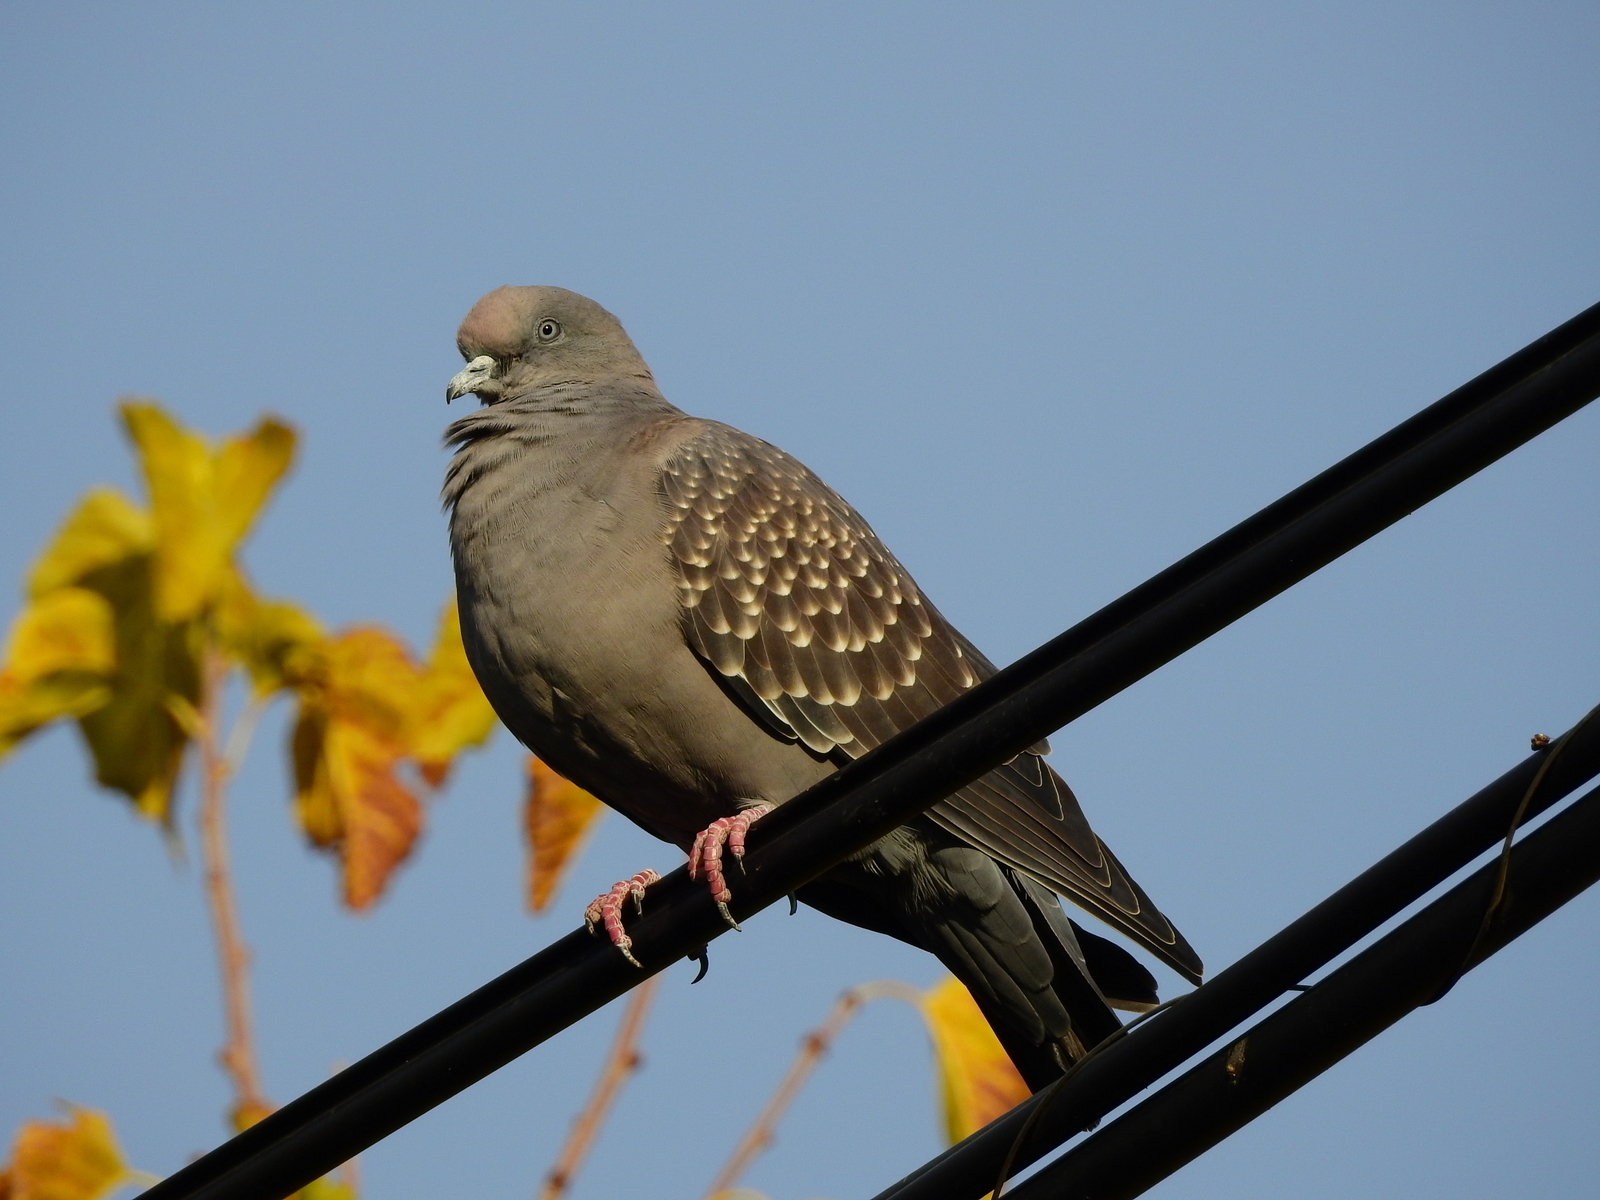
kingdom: Animalia
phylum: Chordata
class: Aves
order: Columbiformes
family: Columbidae
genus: Patagioenas
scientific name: Patagioenas maculosa
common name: Spot-winged pigeon
